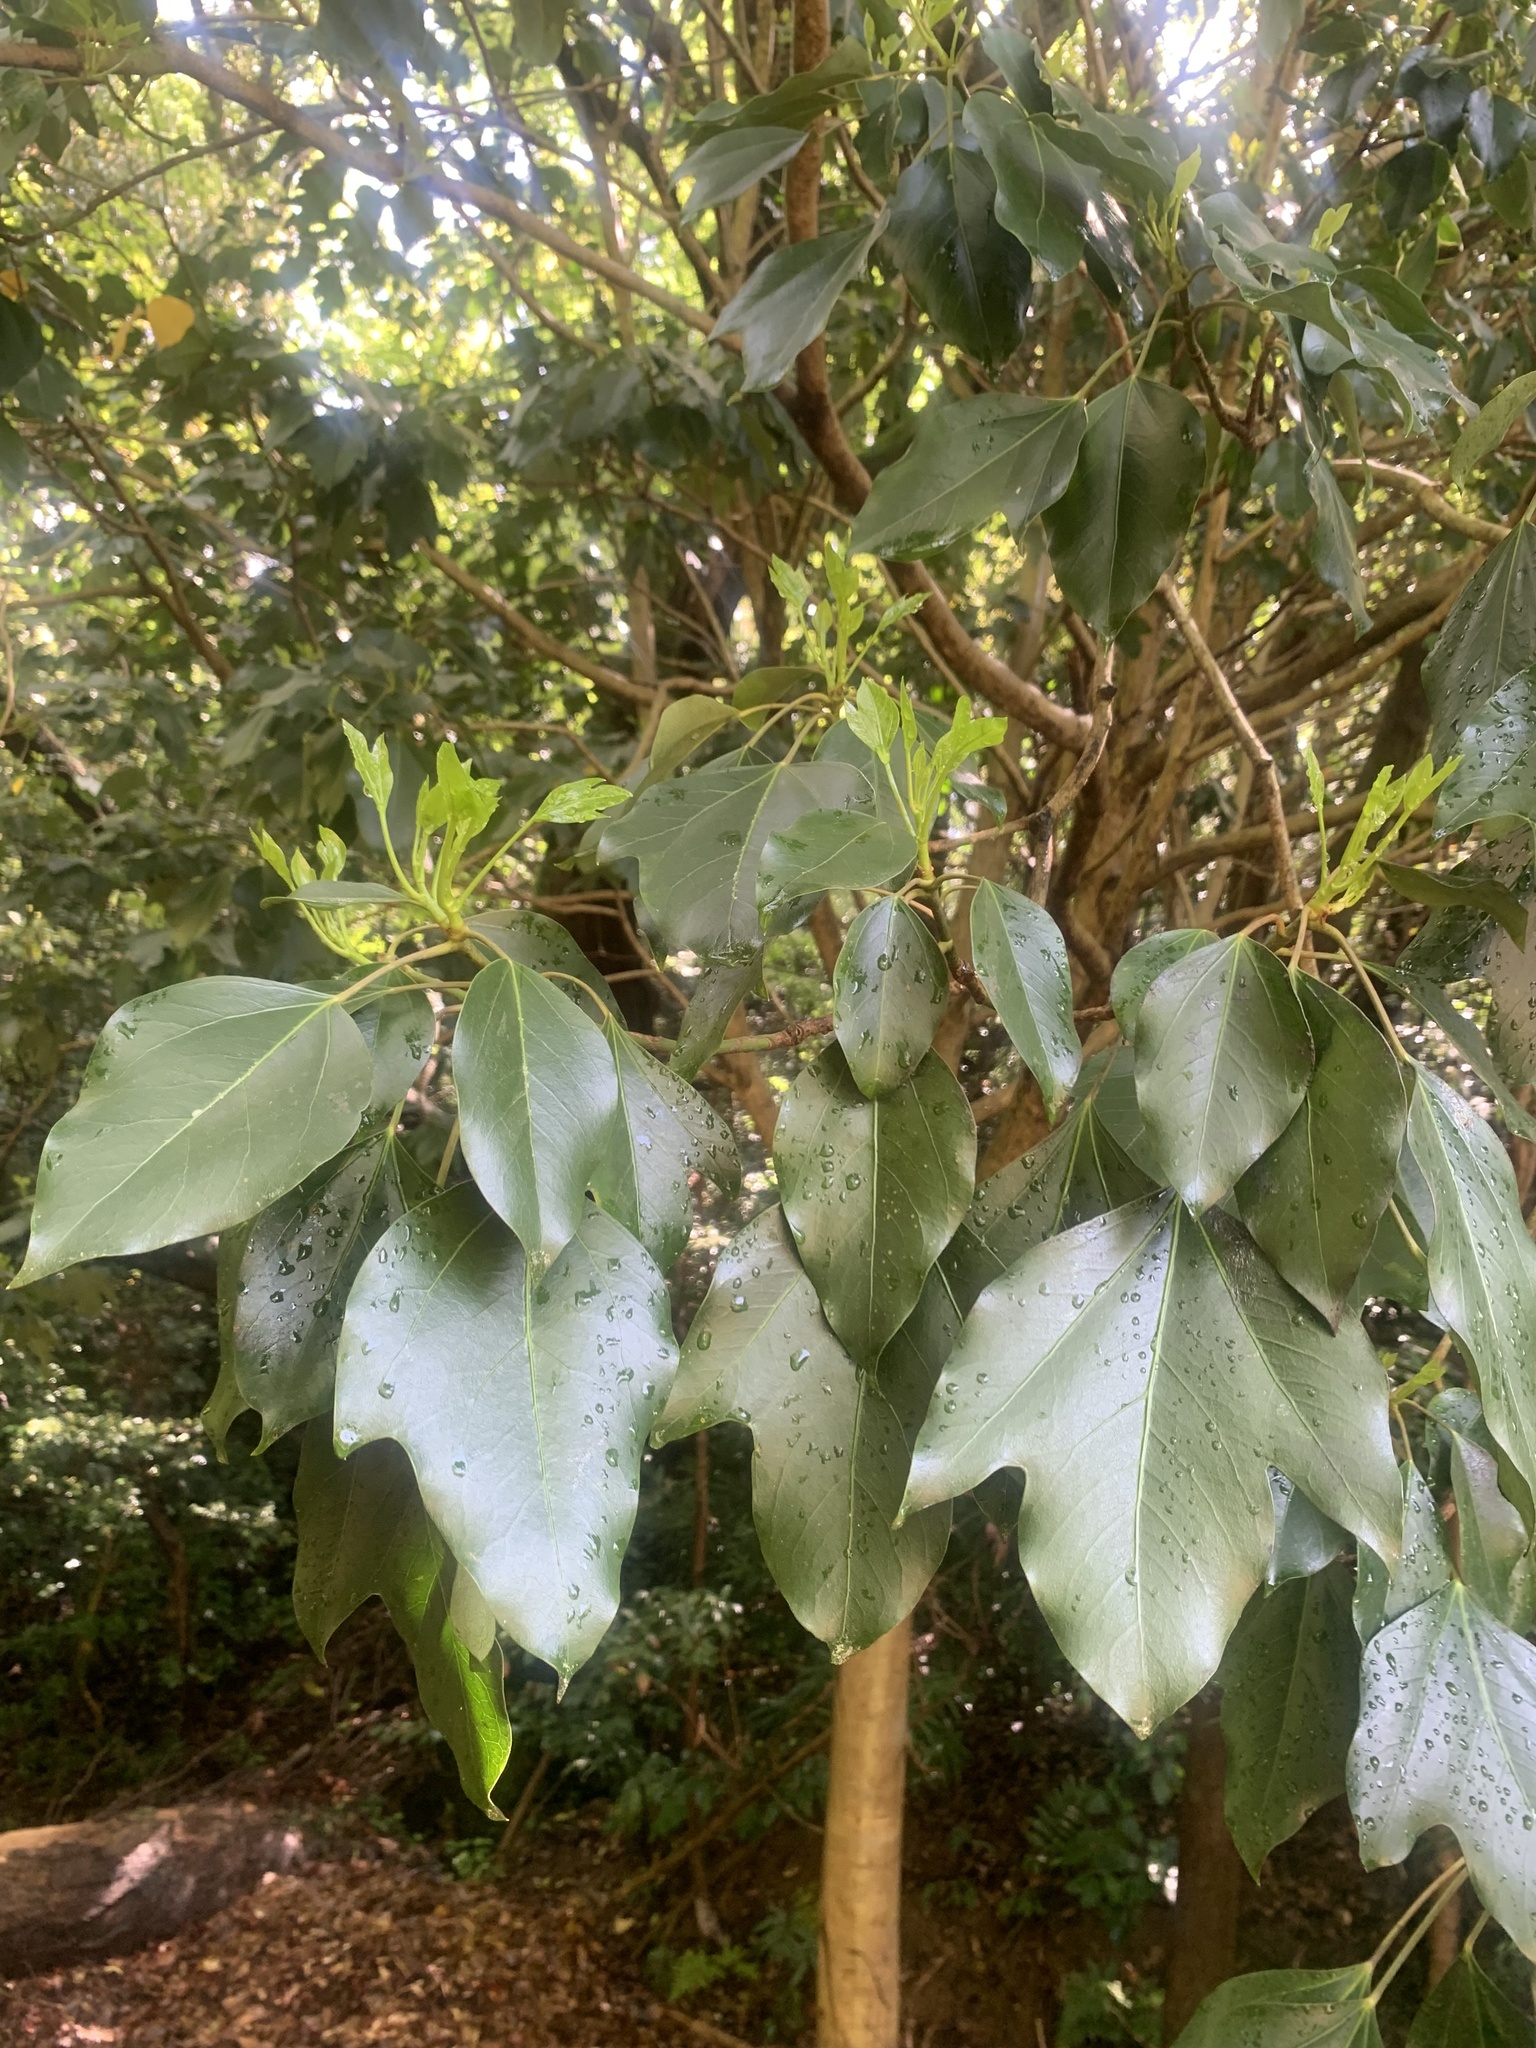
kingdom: Plantae
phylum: Tracheophyta
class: Magnoliopsida
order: Apiales
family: Araliaceae
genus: Dendropanax
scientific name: Dendropanax trifidus
